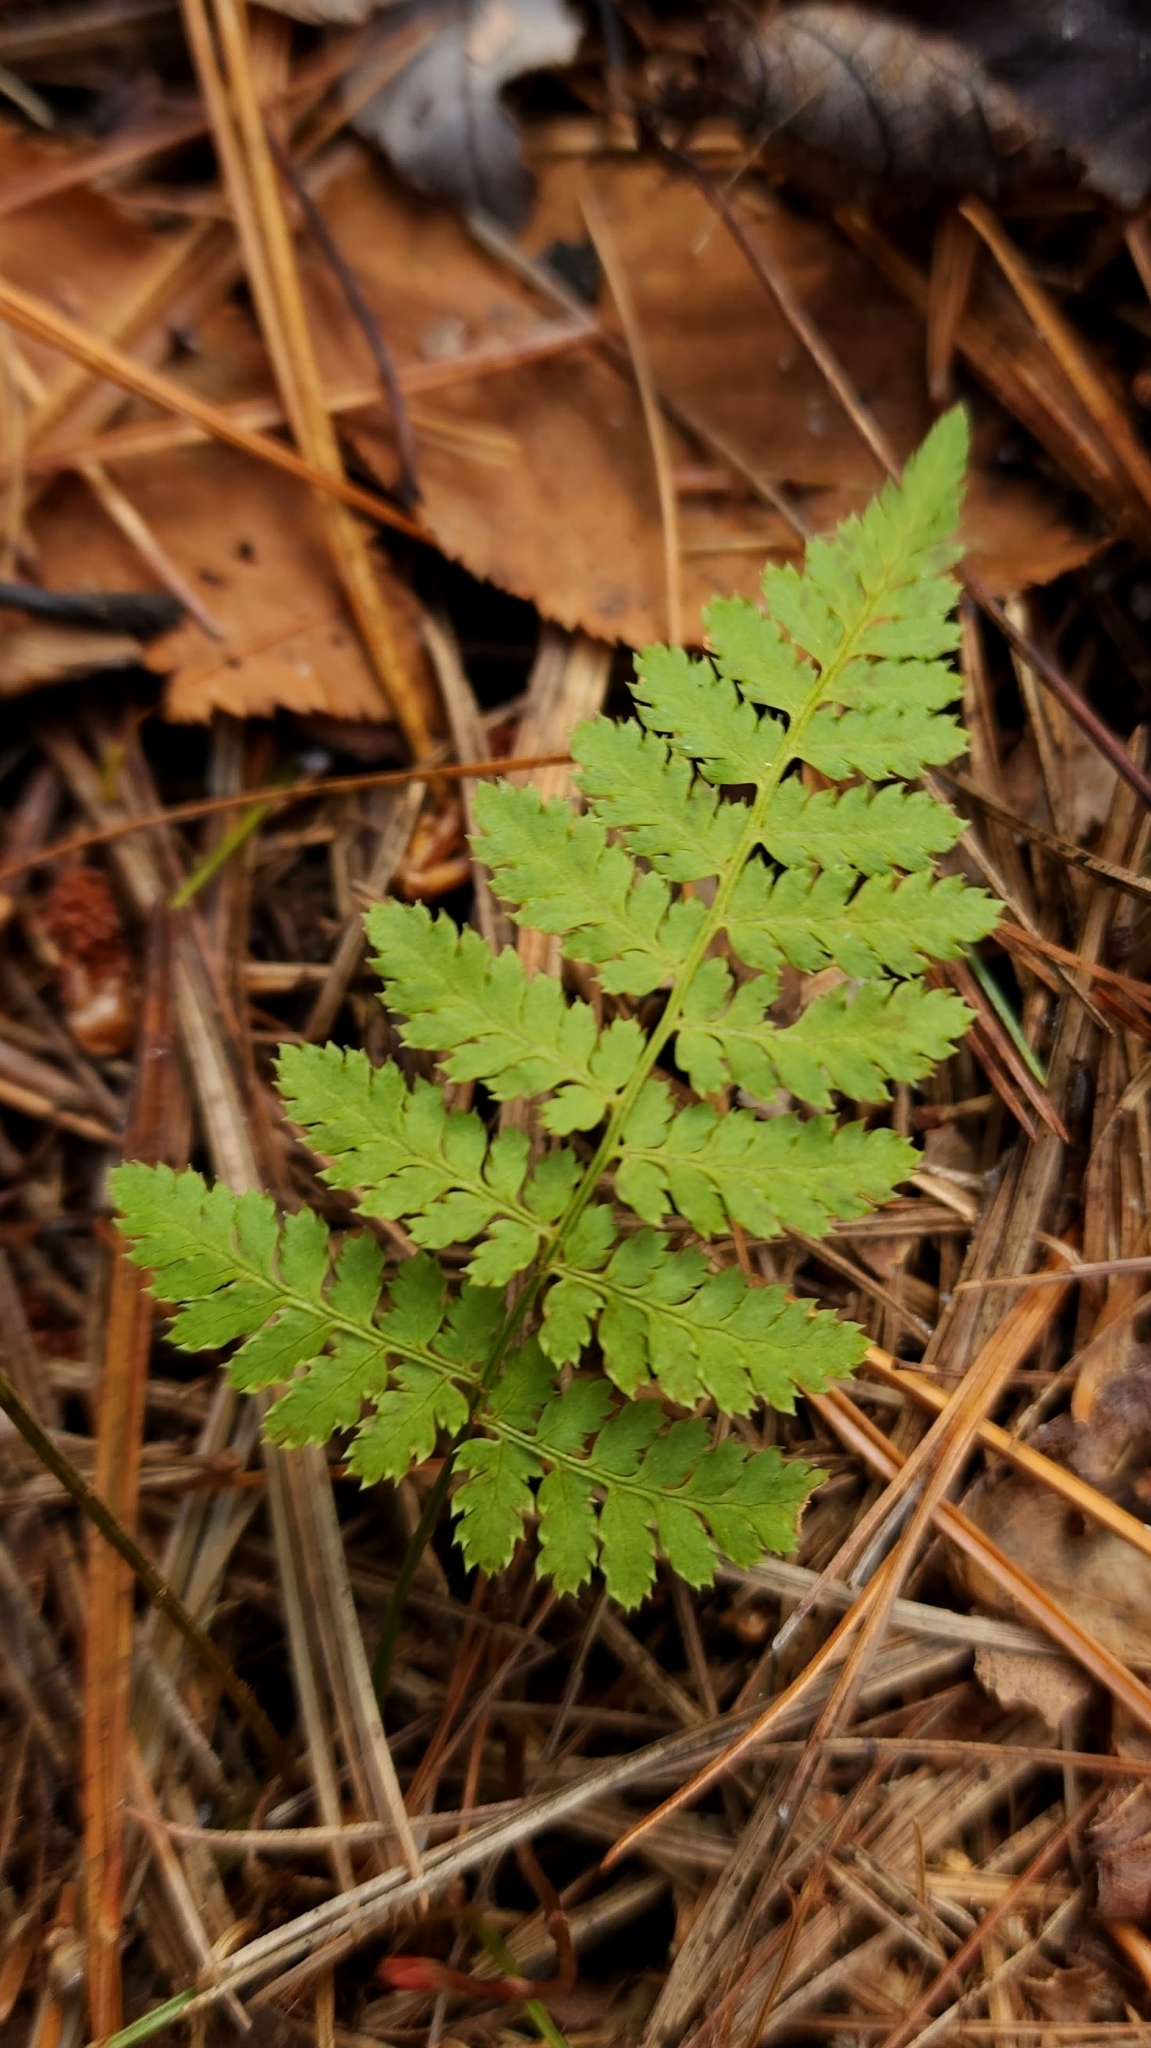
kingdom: Plantae
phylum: Tracheophyta
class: Polypodiopsida
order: Polypodiales
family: Dryopteridaceae
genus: Dryopteris
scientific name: Dryopteris intermedia
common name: Evergreen wood fern
